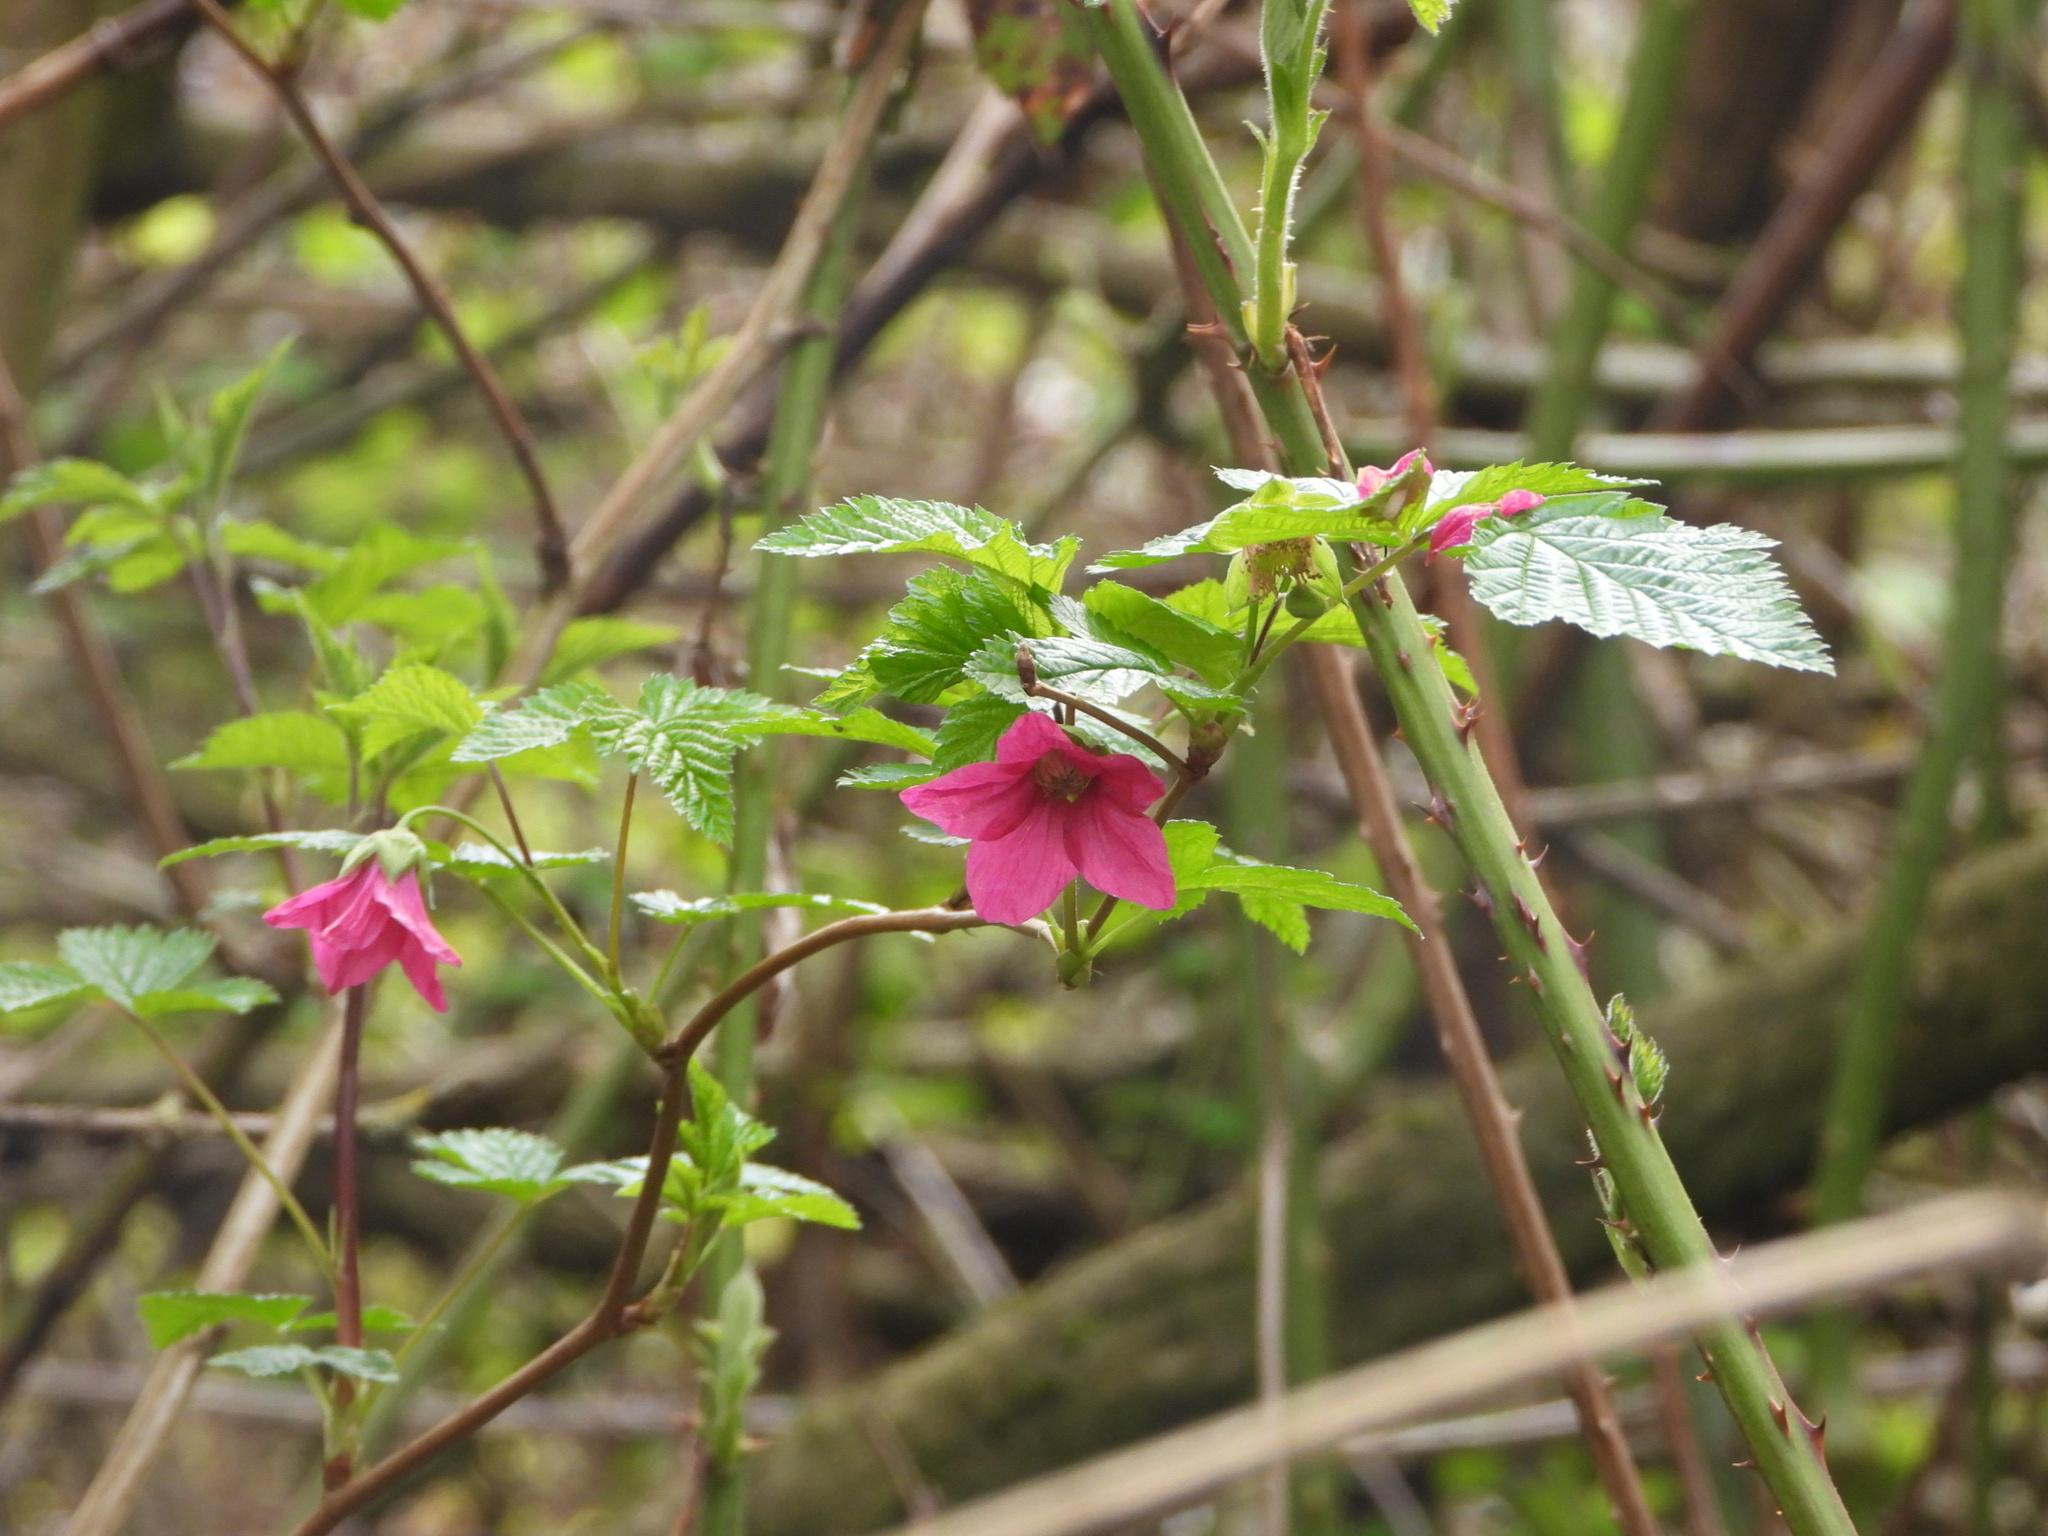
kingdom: Plantae
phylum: Tracheophyta
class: Magnoliopsida
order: Rosales
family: Rosaceae
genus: Rubus
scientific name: Rubus spectabilis
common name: Salmonberry
